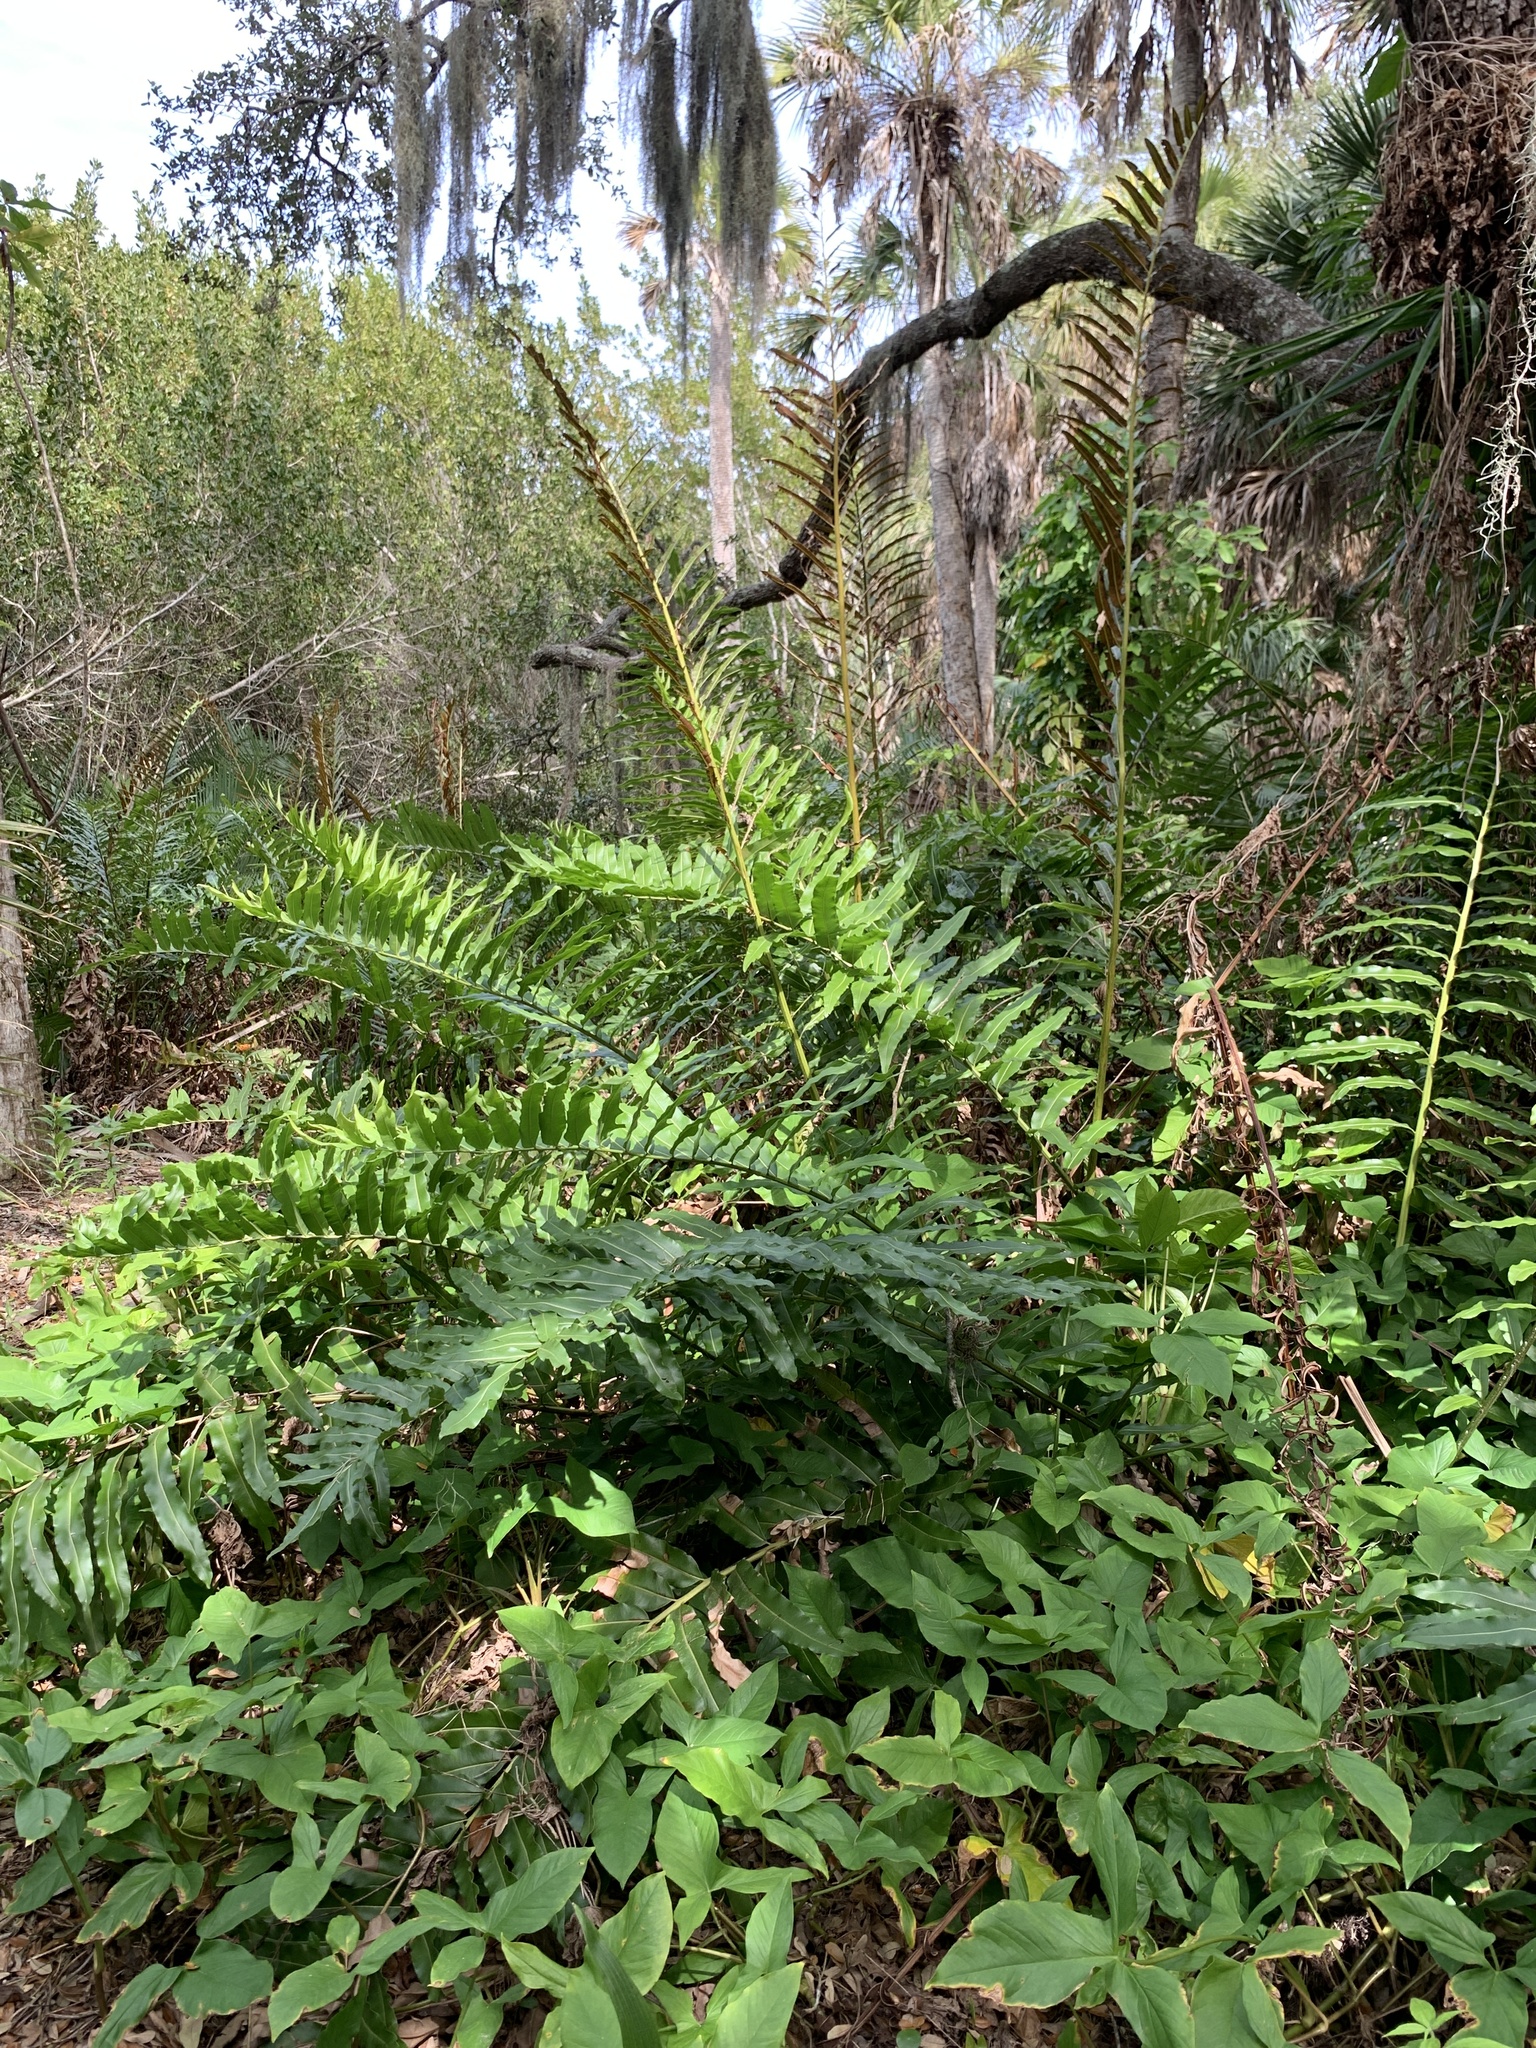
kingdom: Plantae
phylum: Tracheophyta
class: Polypodiopsida
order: Polypodiales
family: Pteridaceae
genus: Acrostichum
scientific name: Acrostichum danaeifolium
